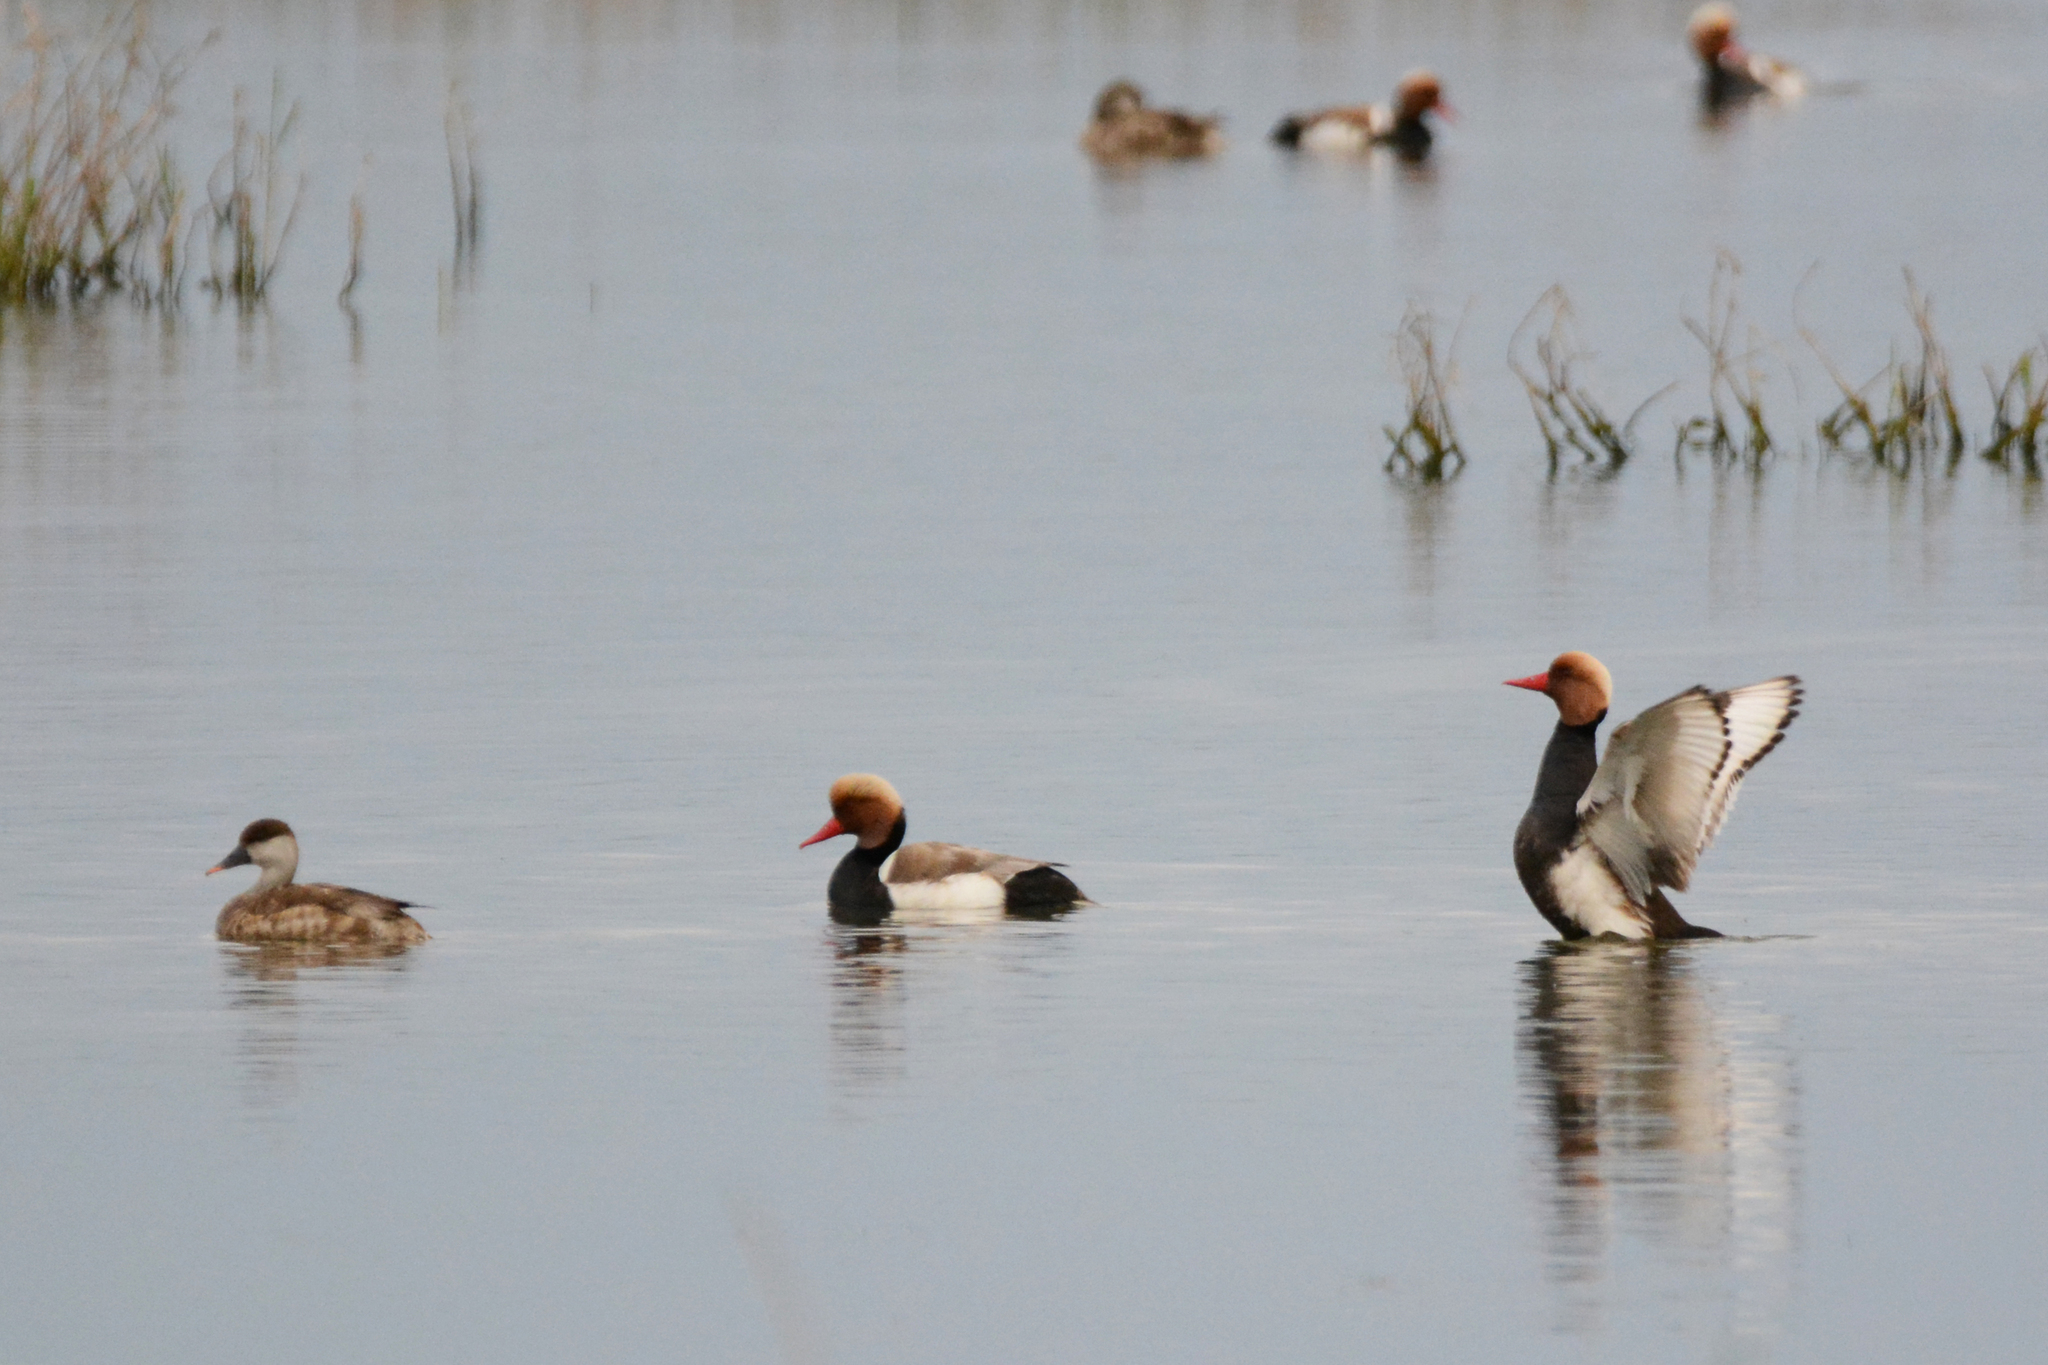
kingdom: Animalia
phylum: Chordata
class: Aves
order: Anseriformes
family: Anatidae
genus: Netta
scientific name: Netta rufina
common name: Red-crested pochard
